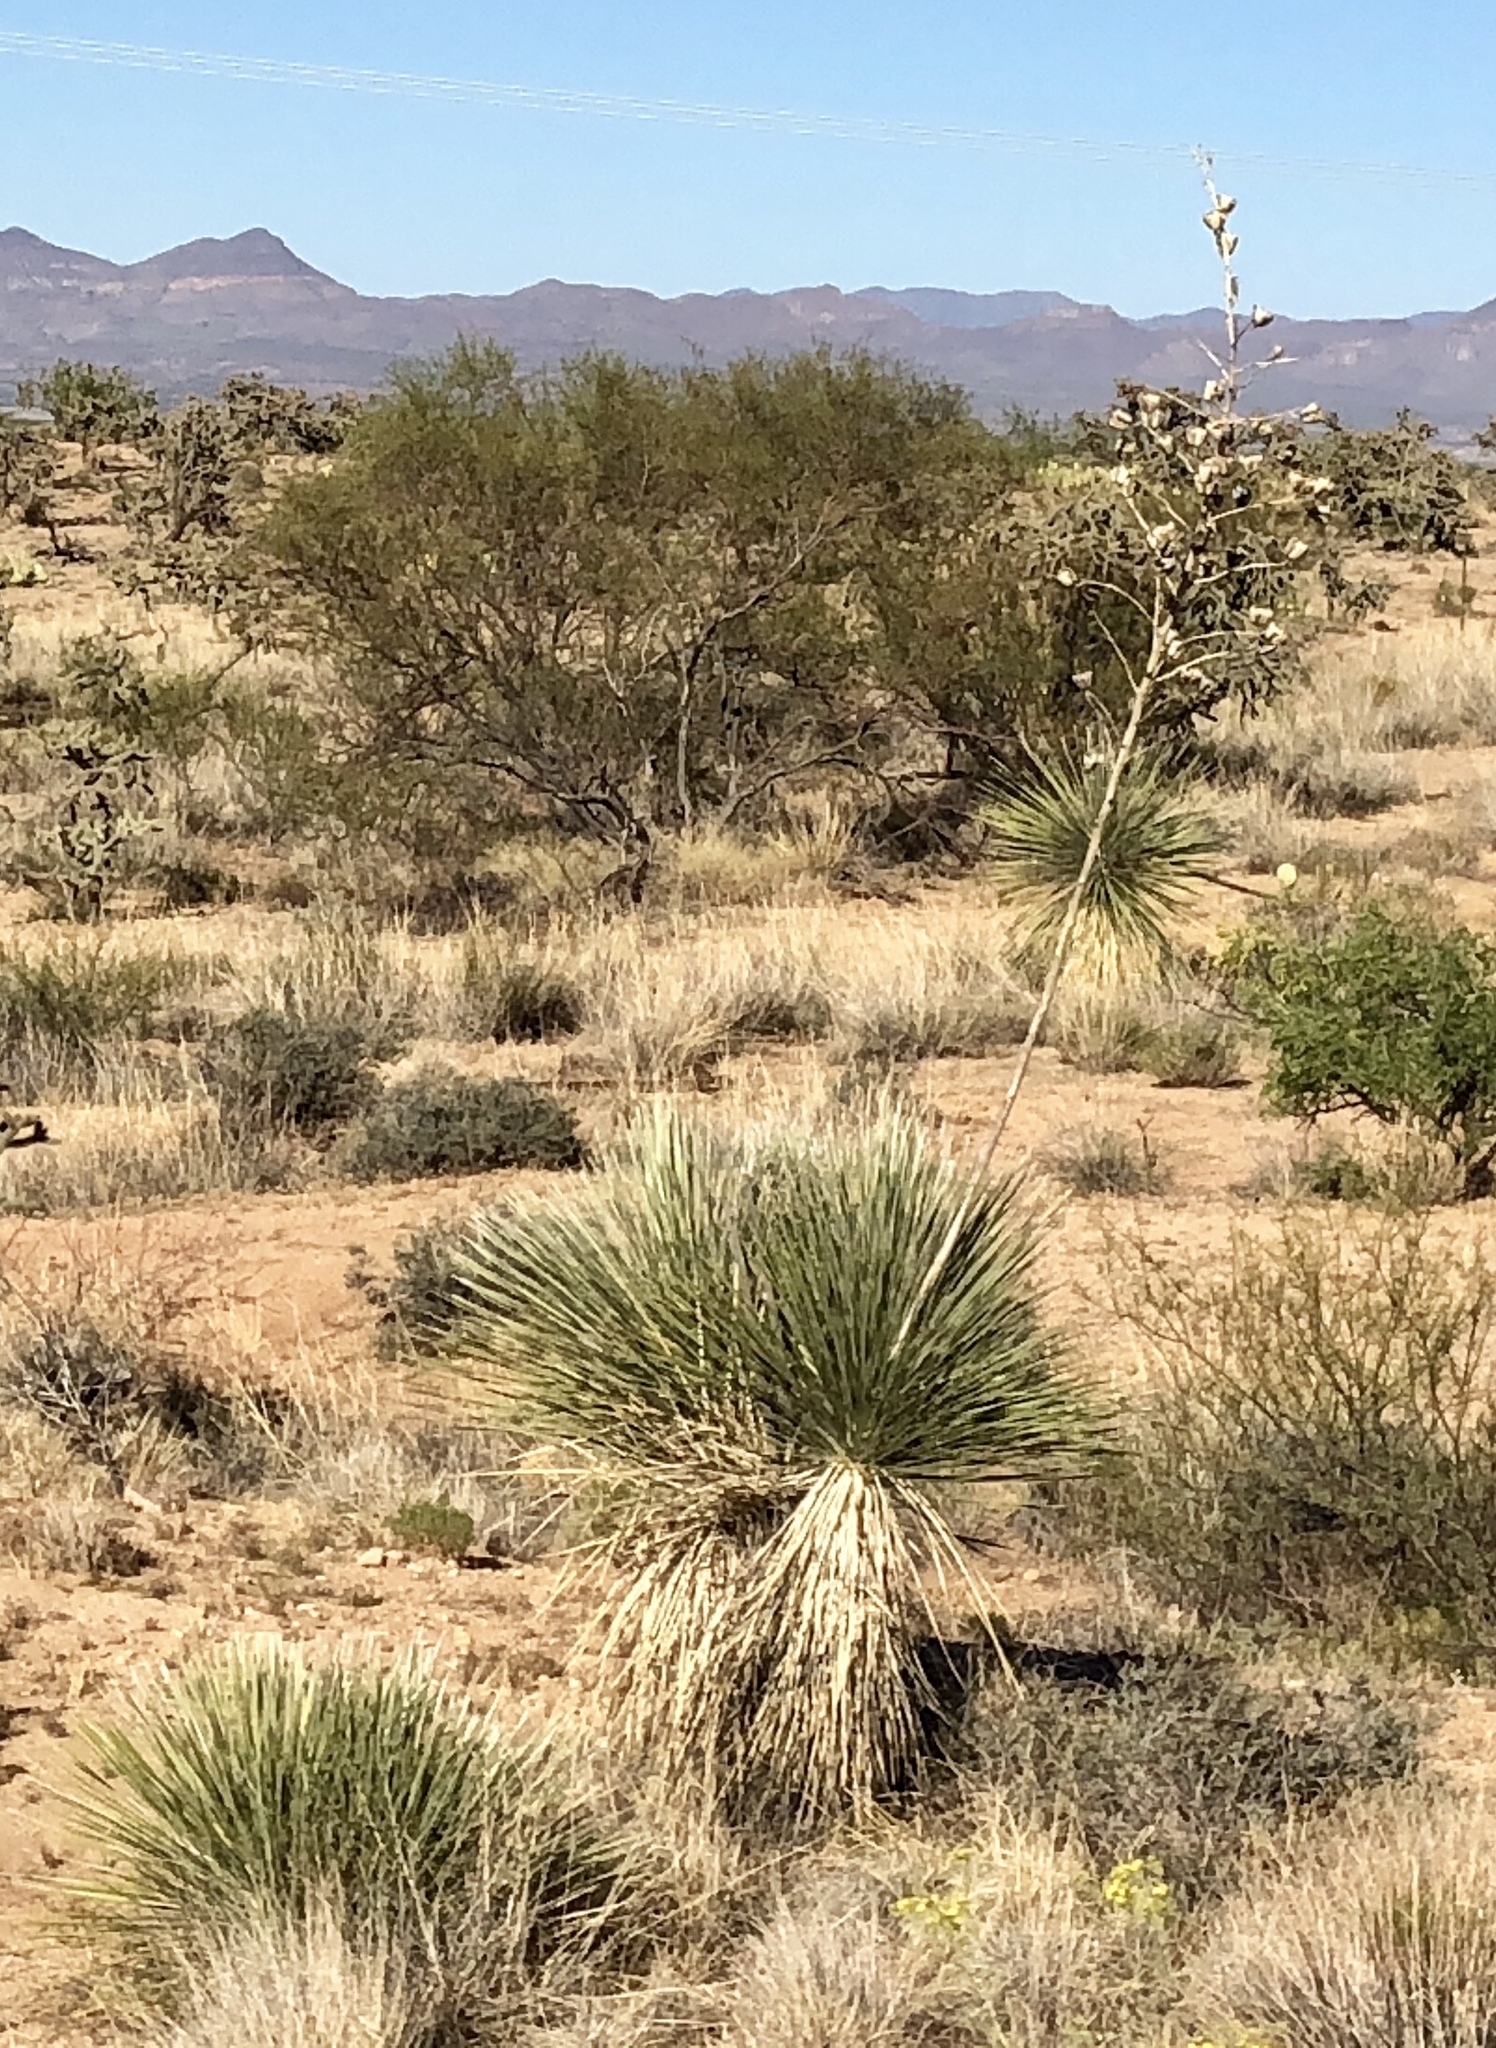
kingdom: Plantae
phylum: Tracheophyta
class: Liliopsida
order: Asparagales
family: Asparagaceae
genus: Yucca
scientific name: Yucca elata
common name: Palmella
